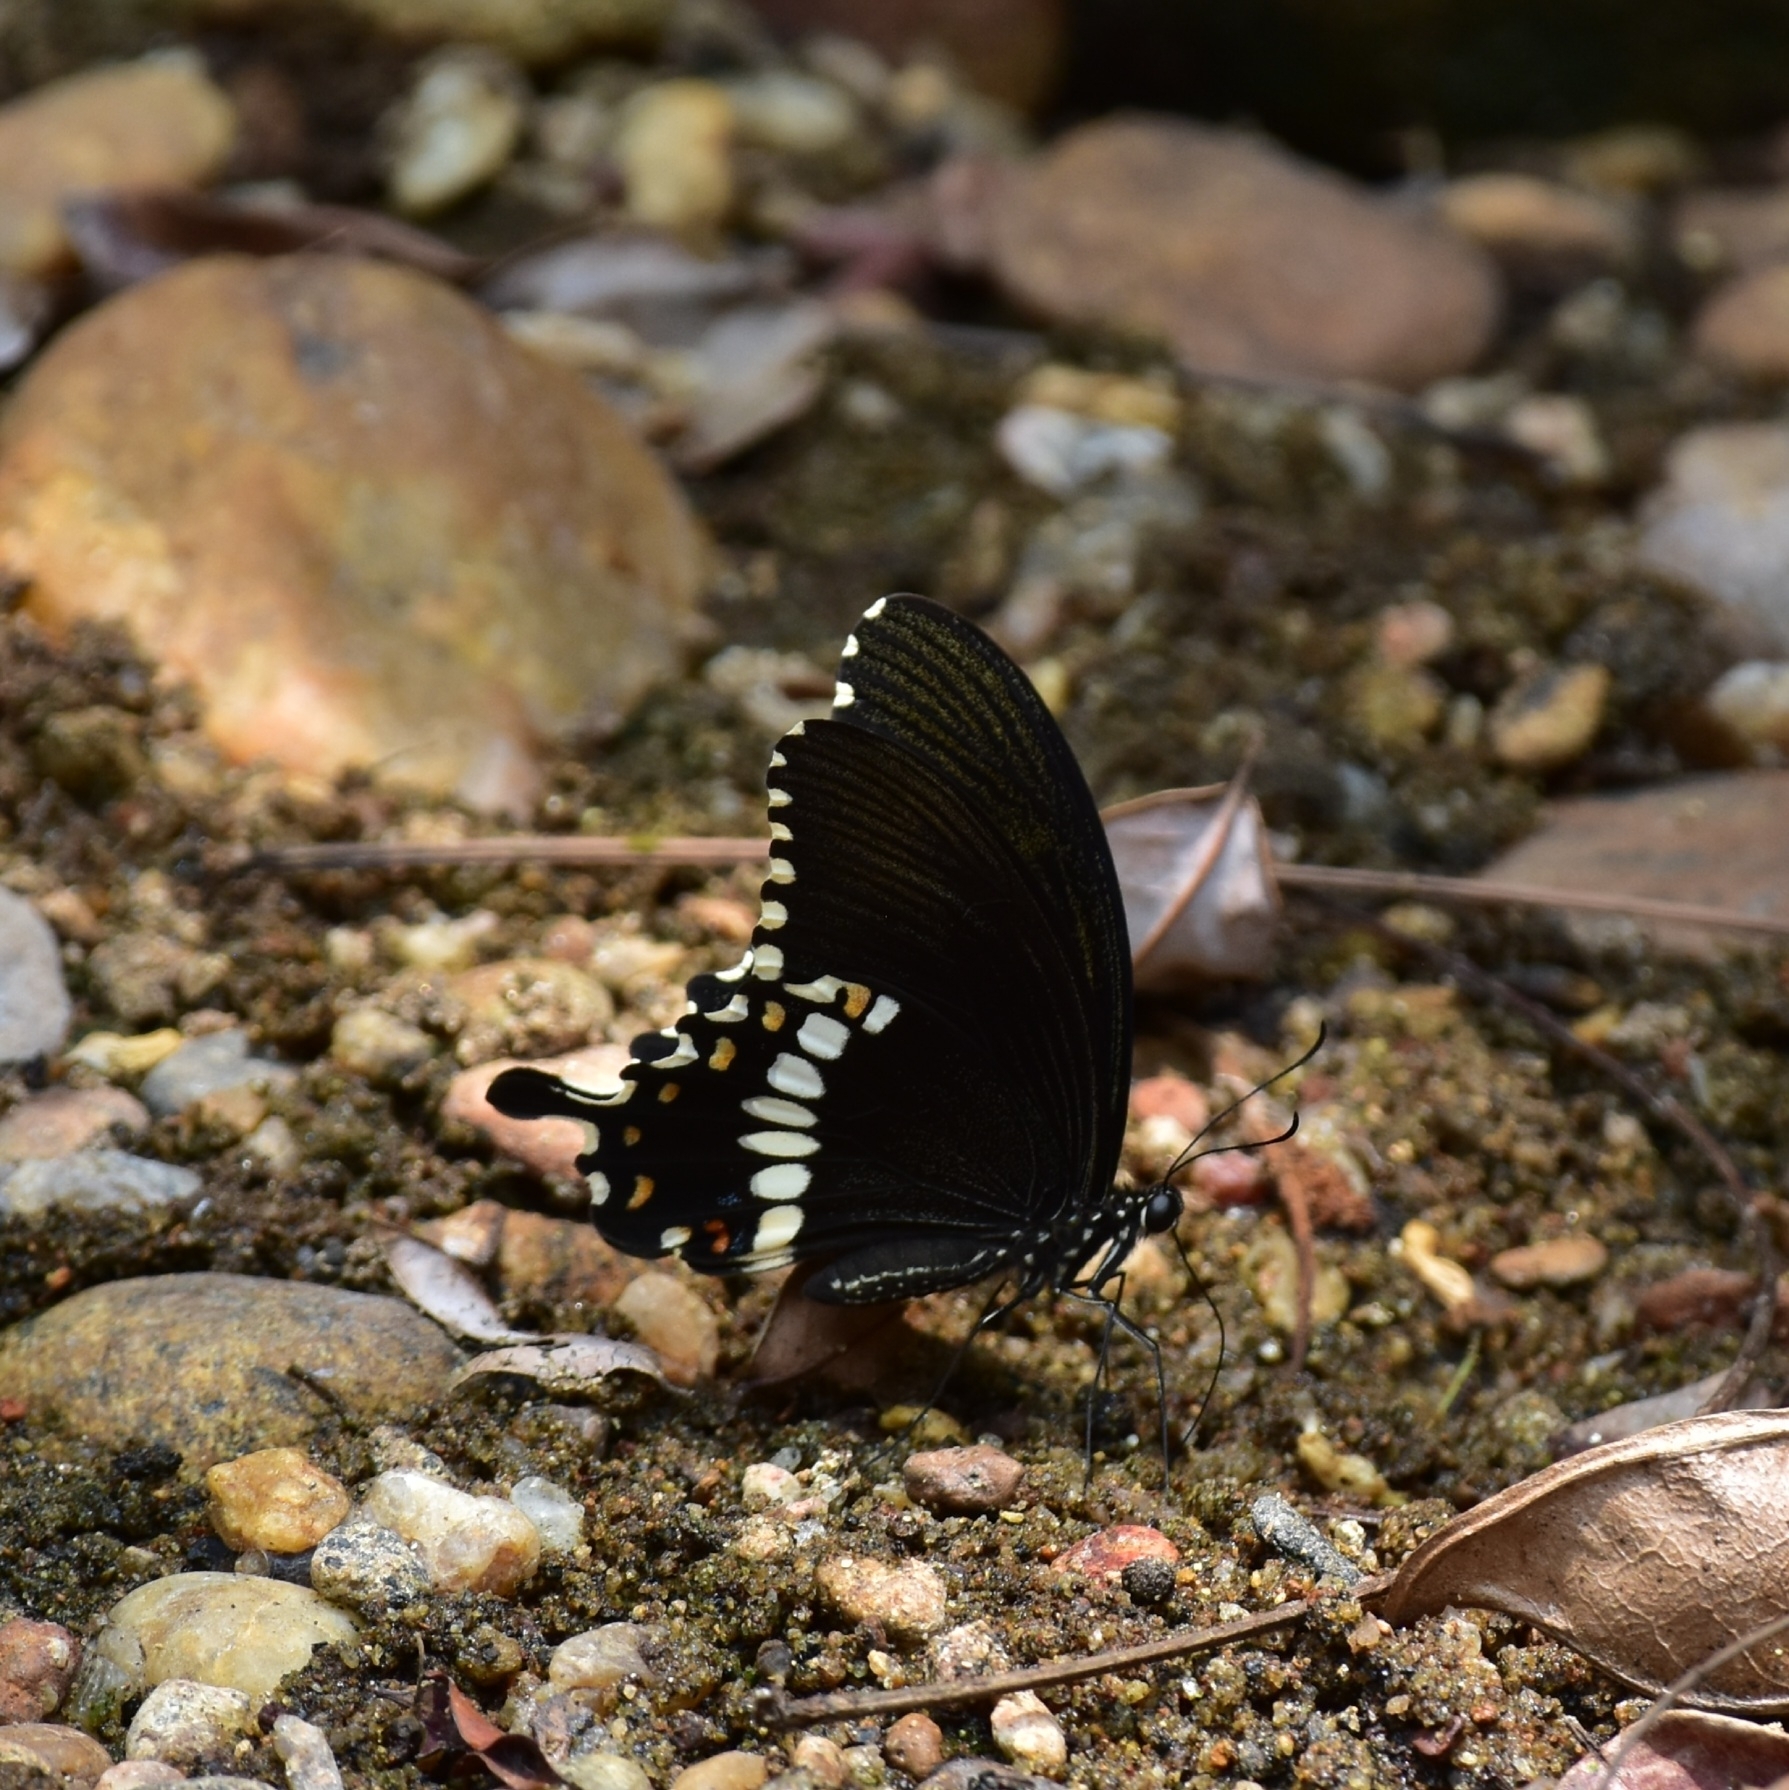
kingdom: Animalia
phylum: Arthropoda
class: Insecta
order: Lepidoptera
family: Papilionidae
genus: Papilio
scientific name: Papilio polytes
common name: Common mormon
